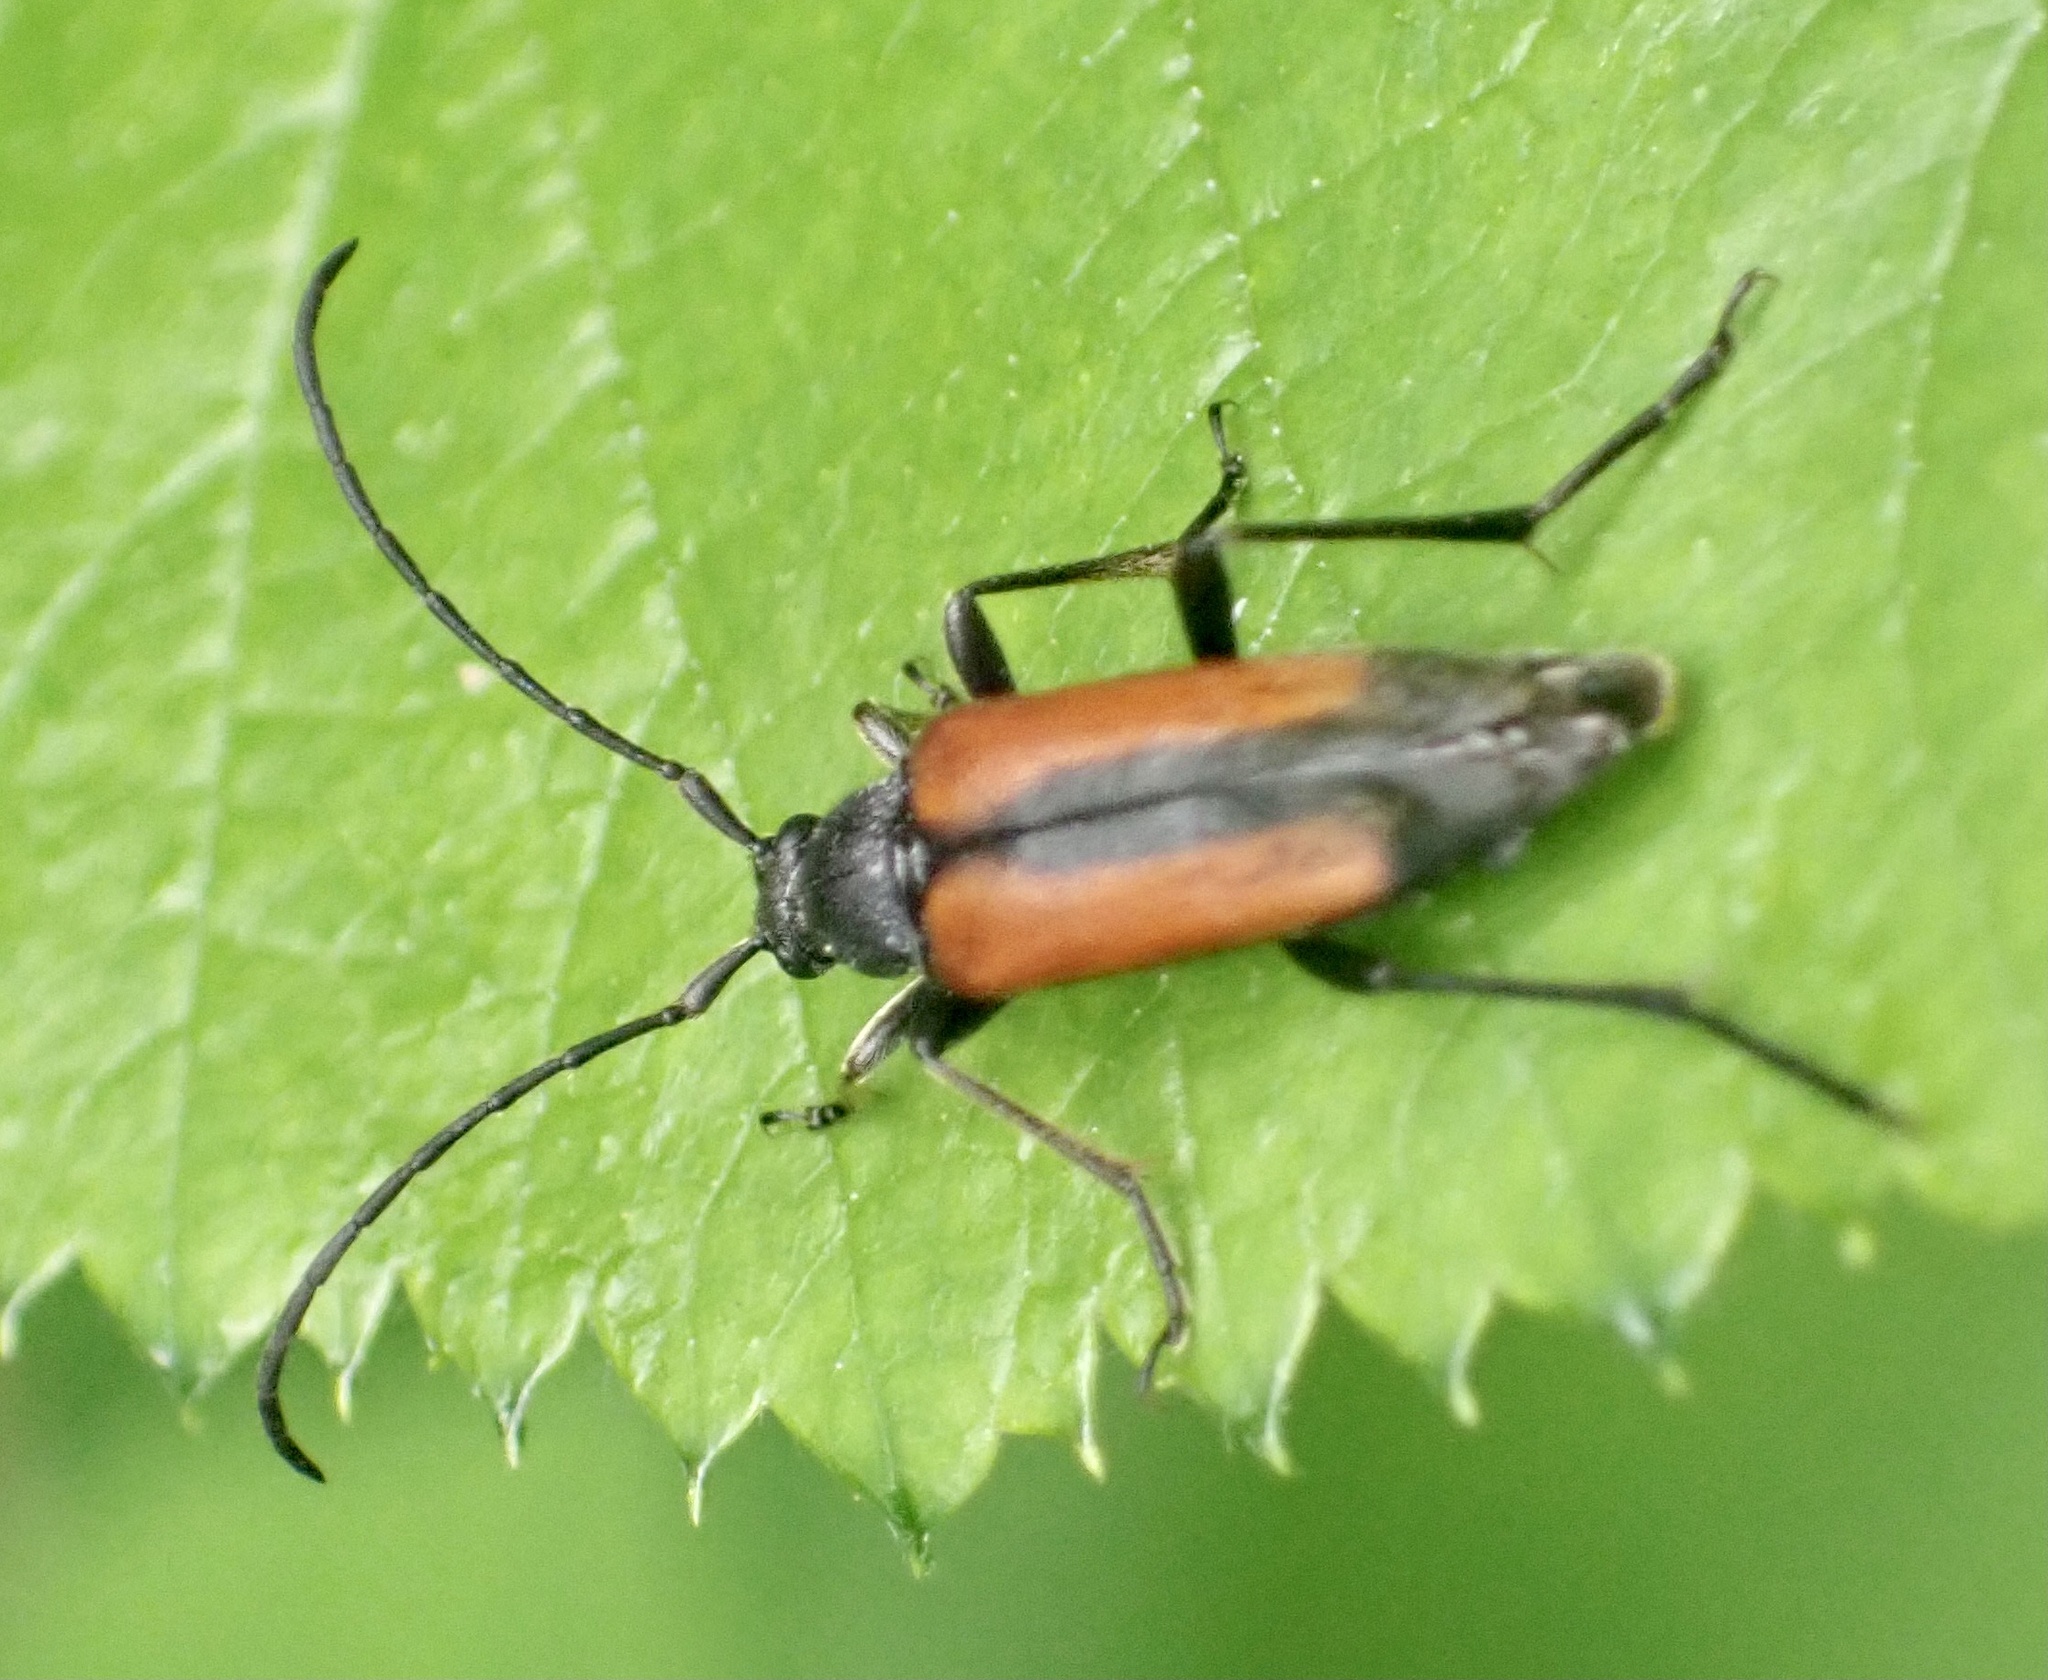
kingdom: Animalia
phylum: Arthropoda
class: Insecta
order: Coleoptera
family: Cerambycidae
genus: Stenurella
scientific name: Stenurella melanura
